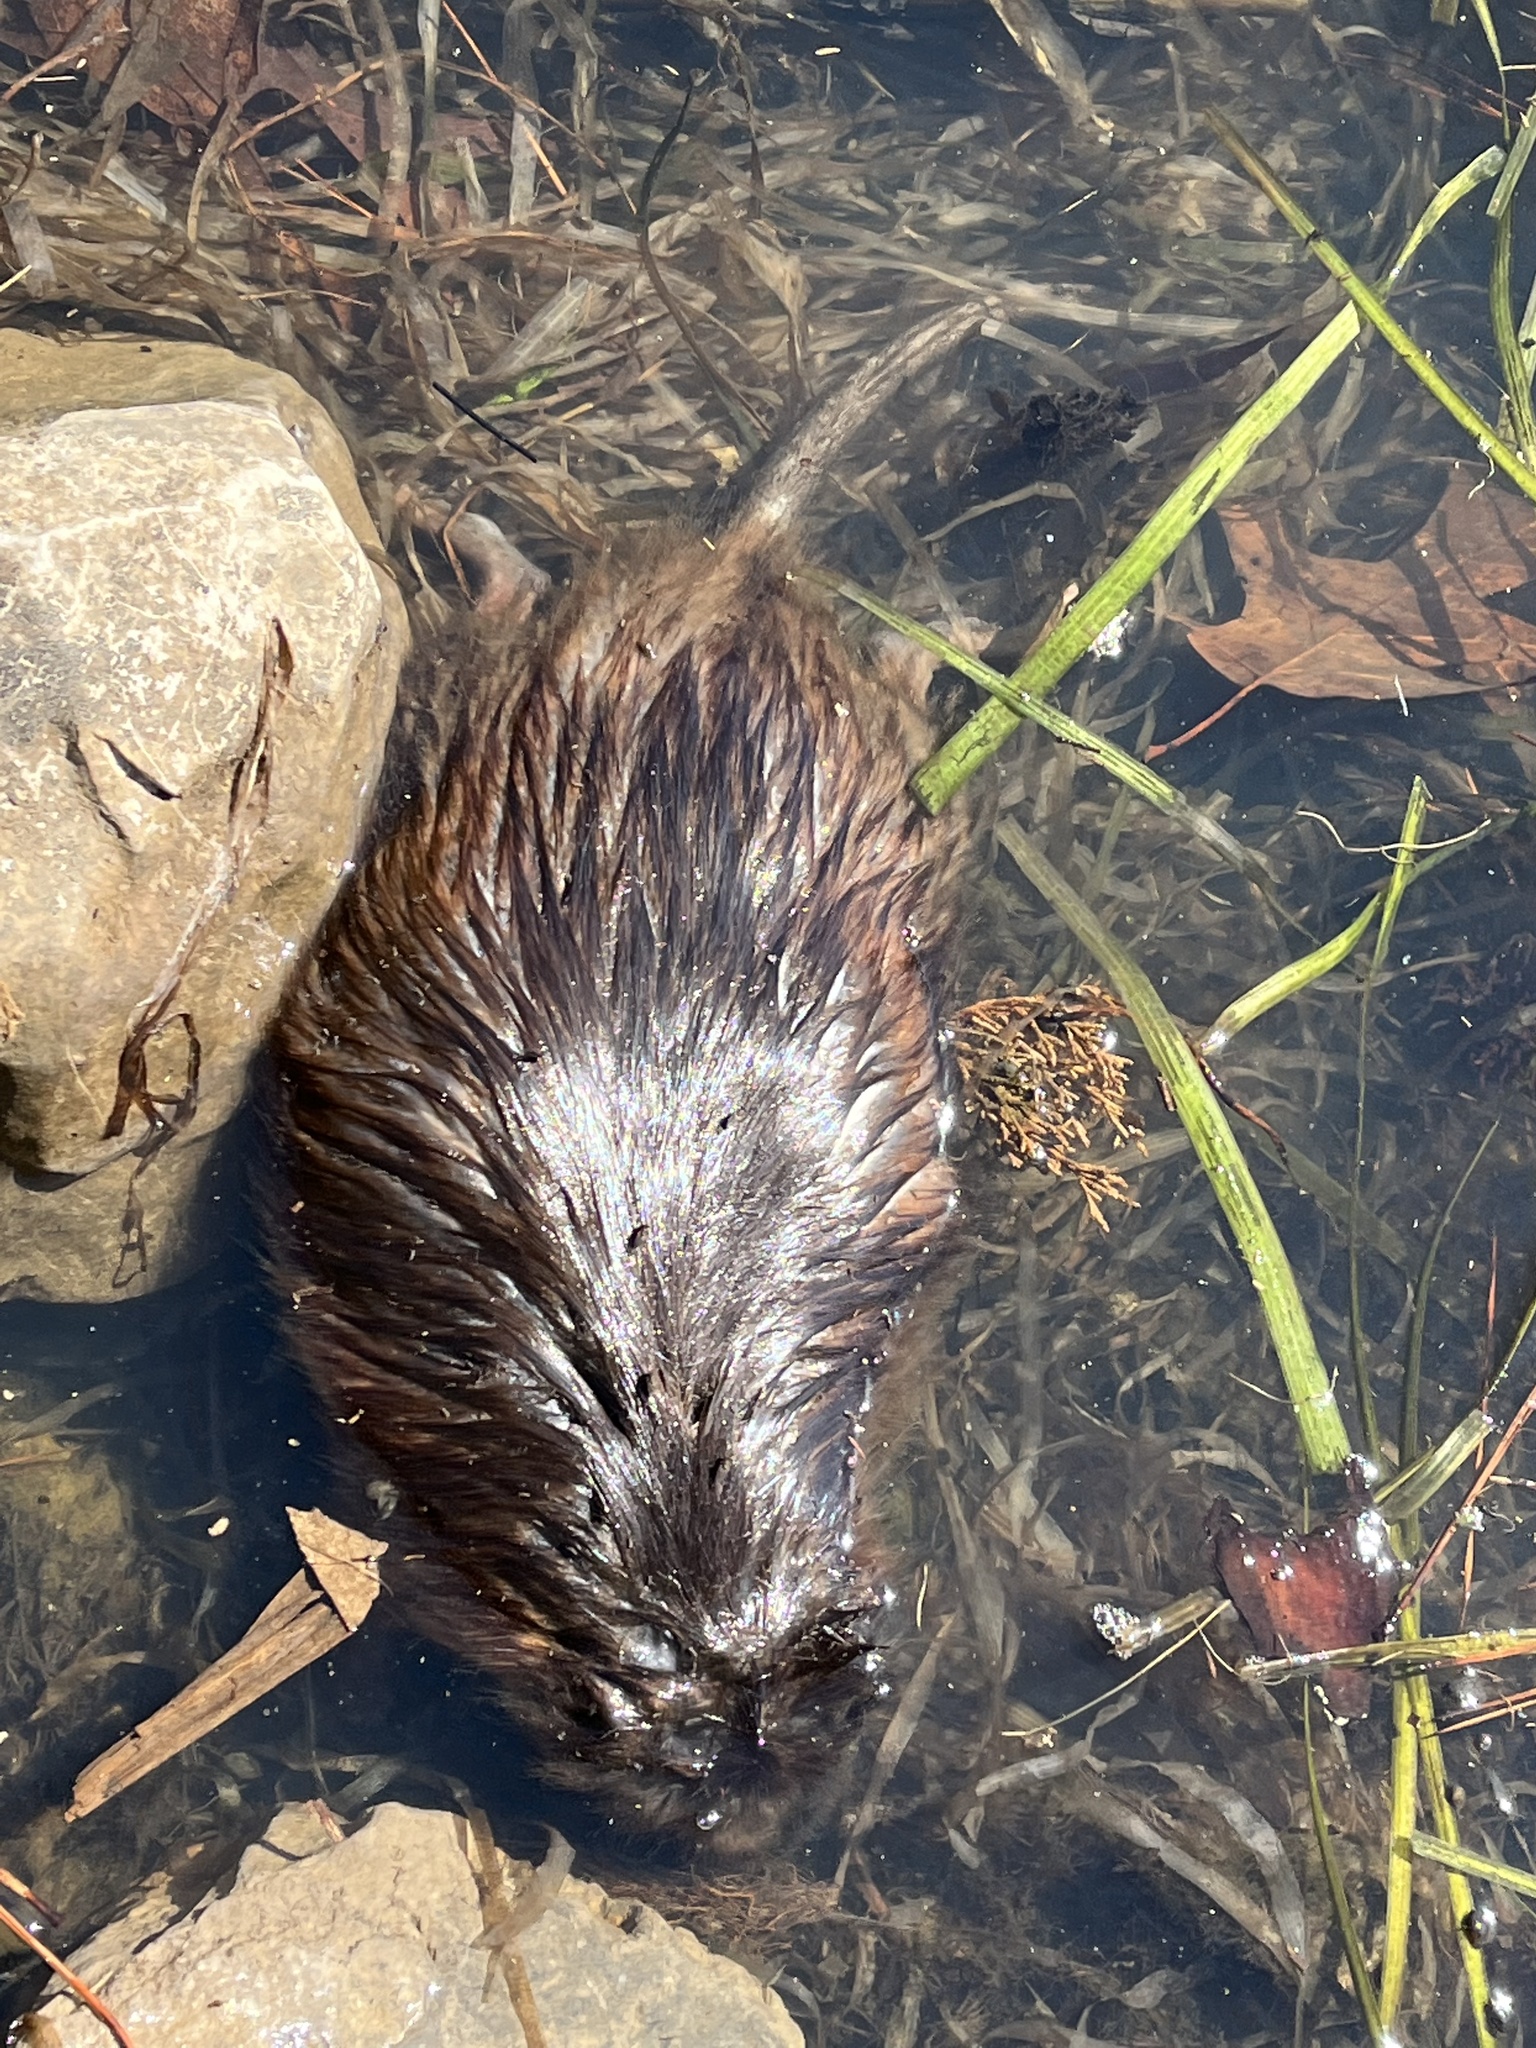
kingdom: Animalia
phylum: Chordata
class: Mammalia
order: Rodentia
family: Cricetidae
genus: Ondatra
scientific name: Ondatra zibethicus
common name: Muskrat
